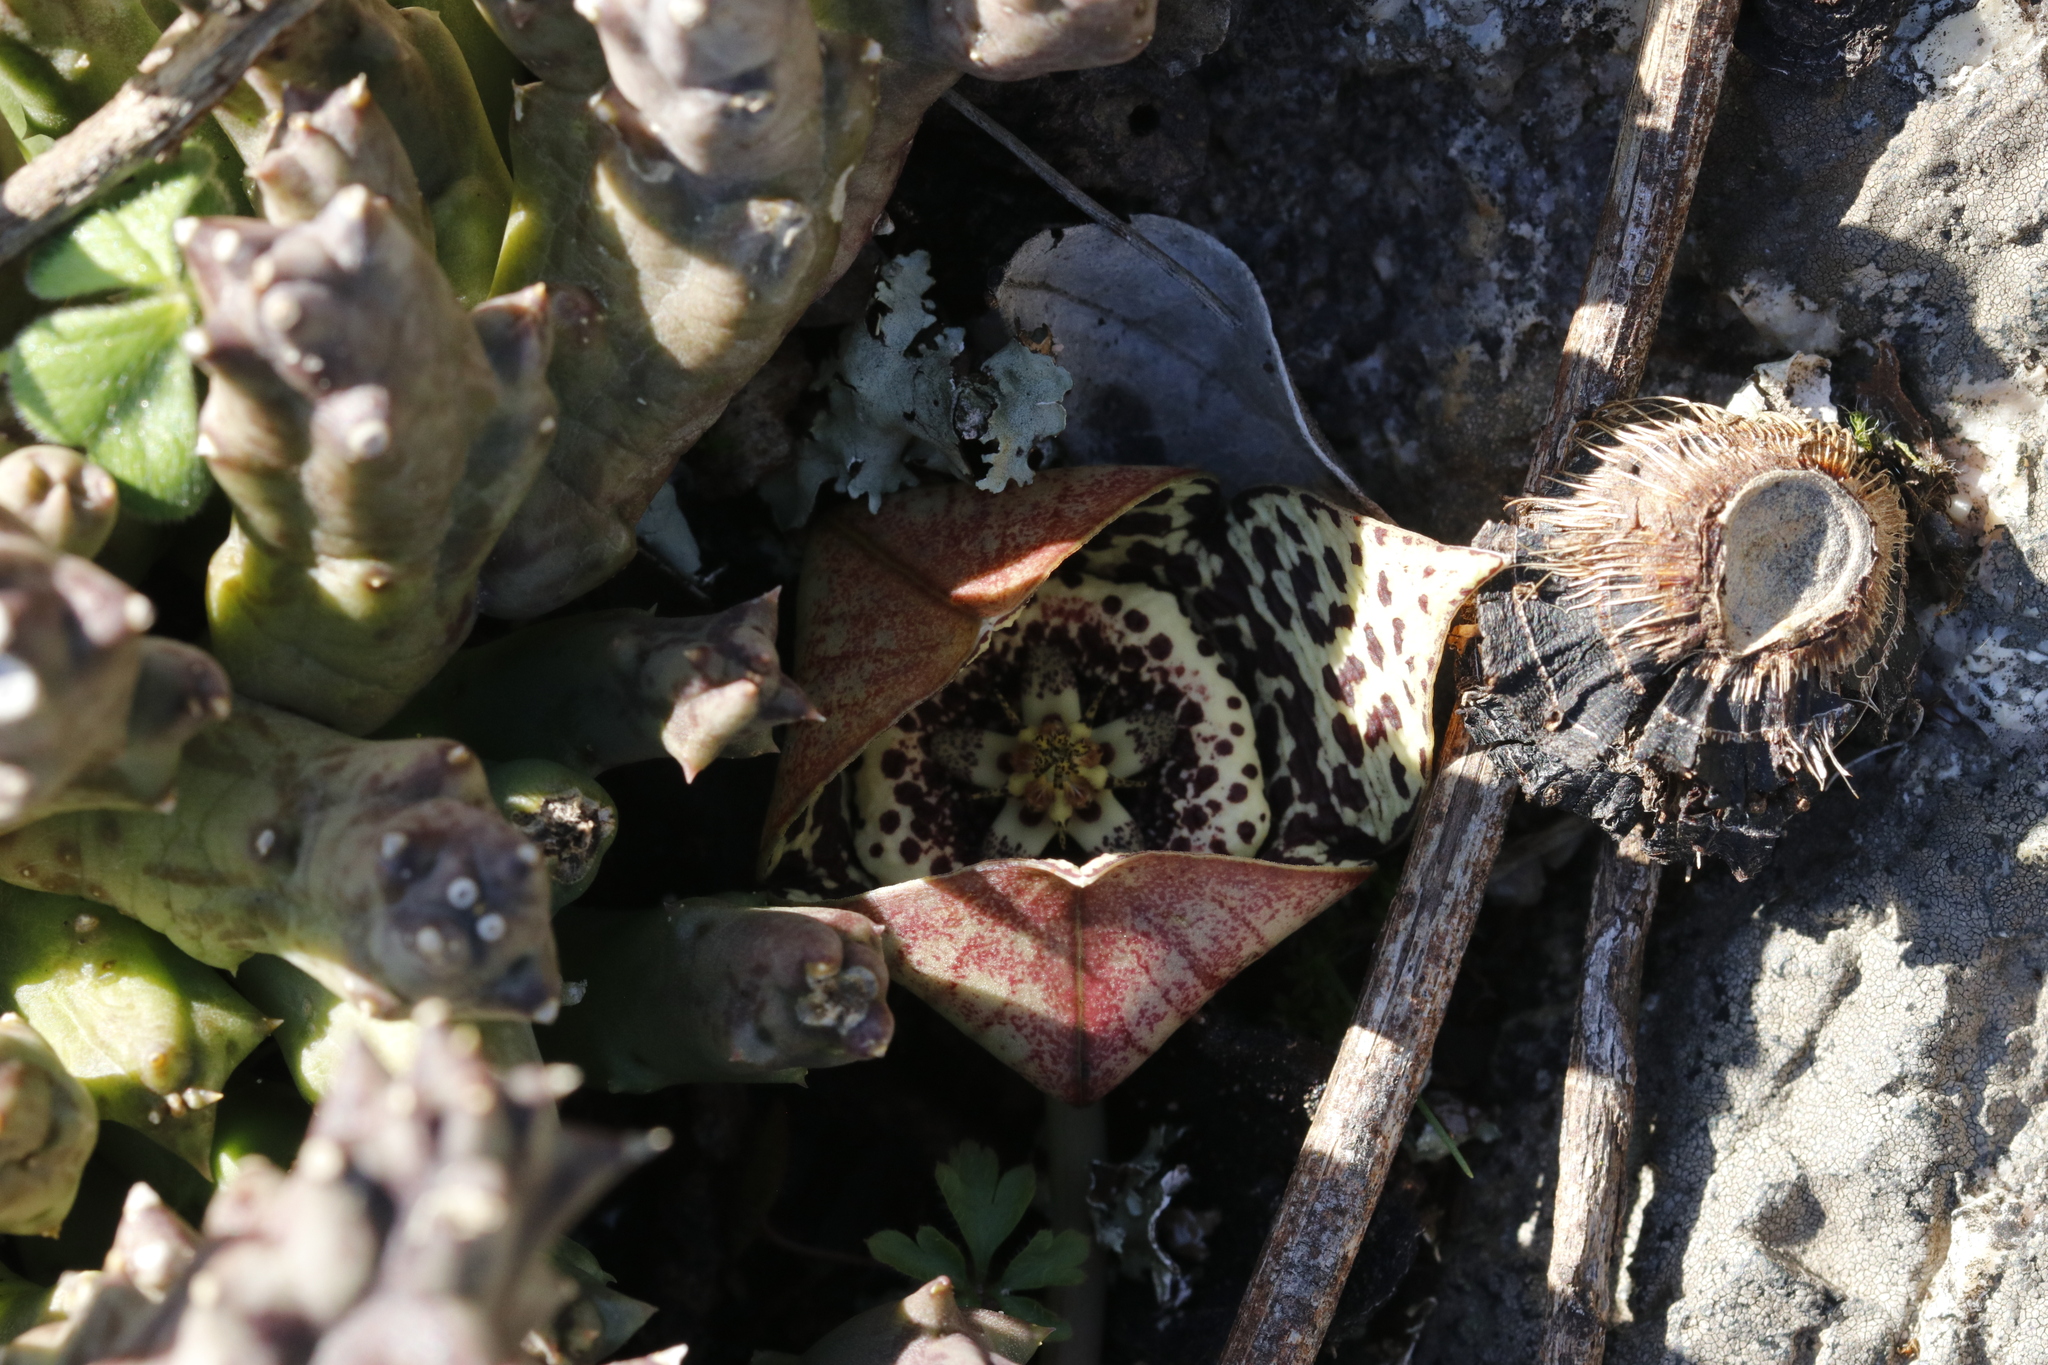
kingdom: Plantae
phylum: Tracheophyta
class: Magnoliopsida
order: Gentianales
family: Apocynaceae
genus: Ceropegia
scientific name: Ceropegia mixta
